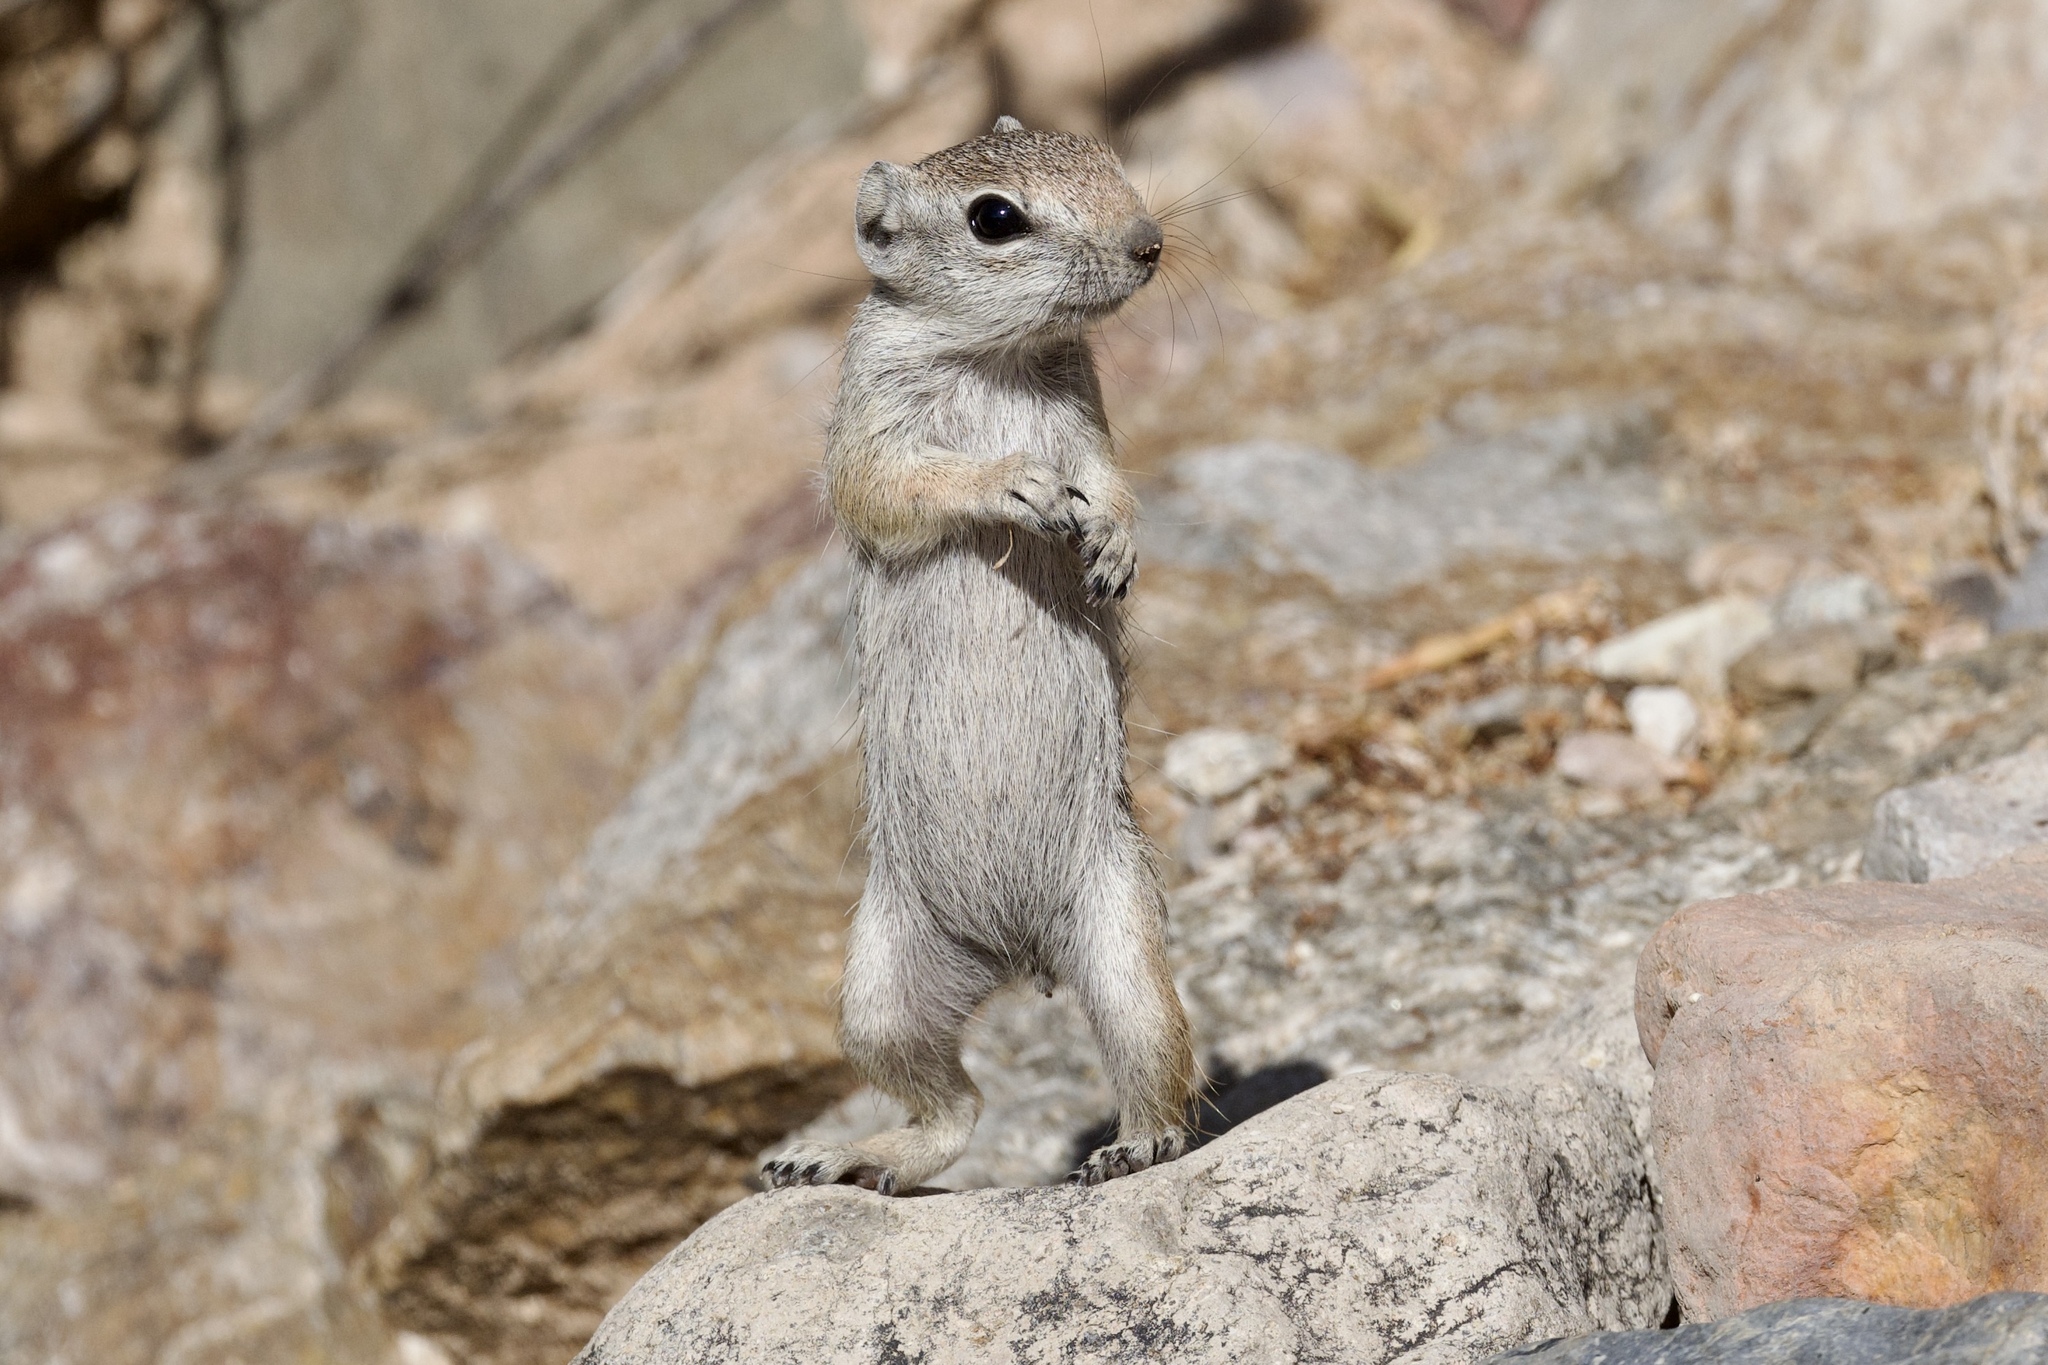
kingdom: Animalia
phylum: Chordata
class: Mammalia
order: Rodentia
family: Sciuridae
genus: Xerospermophilus
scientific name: Xerospermophilus tereticaudus
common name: Round-tailed ground squirrel
